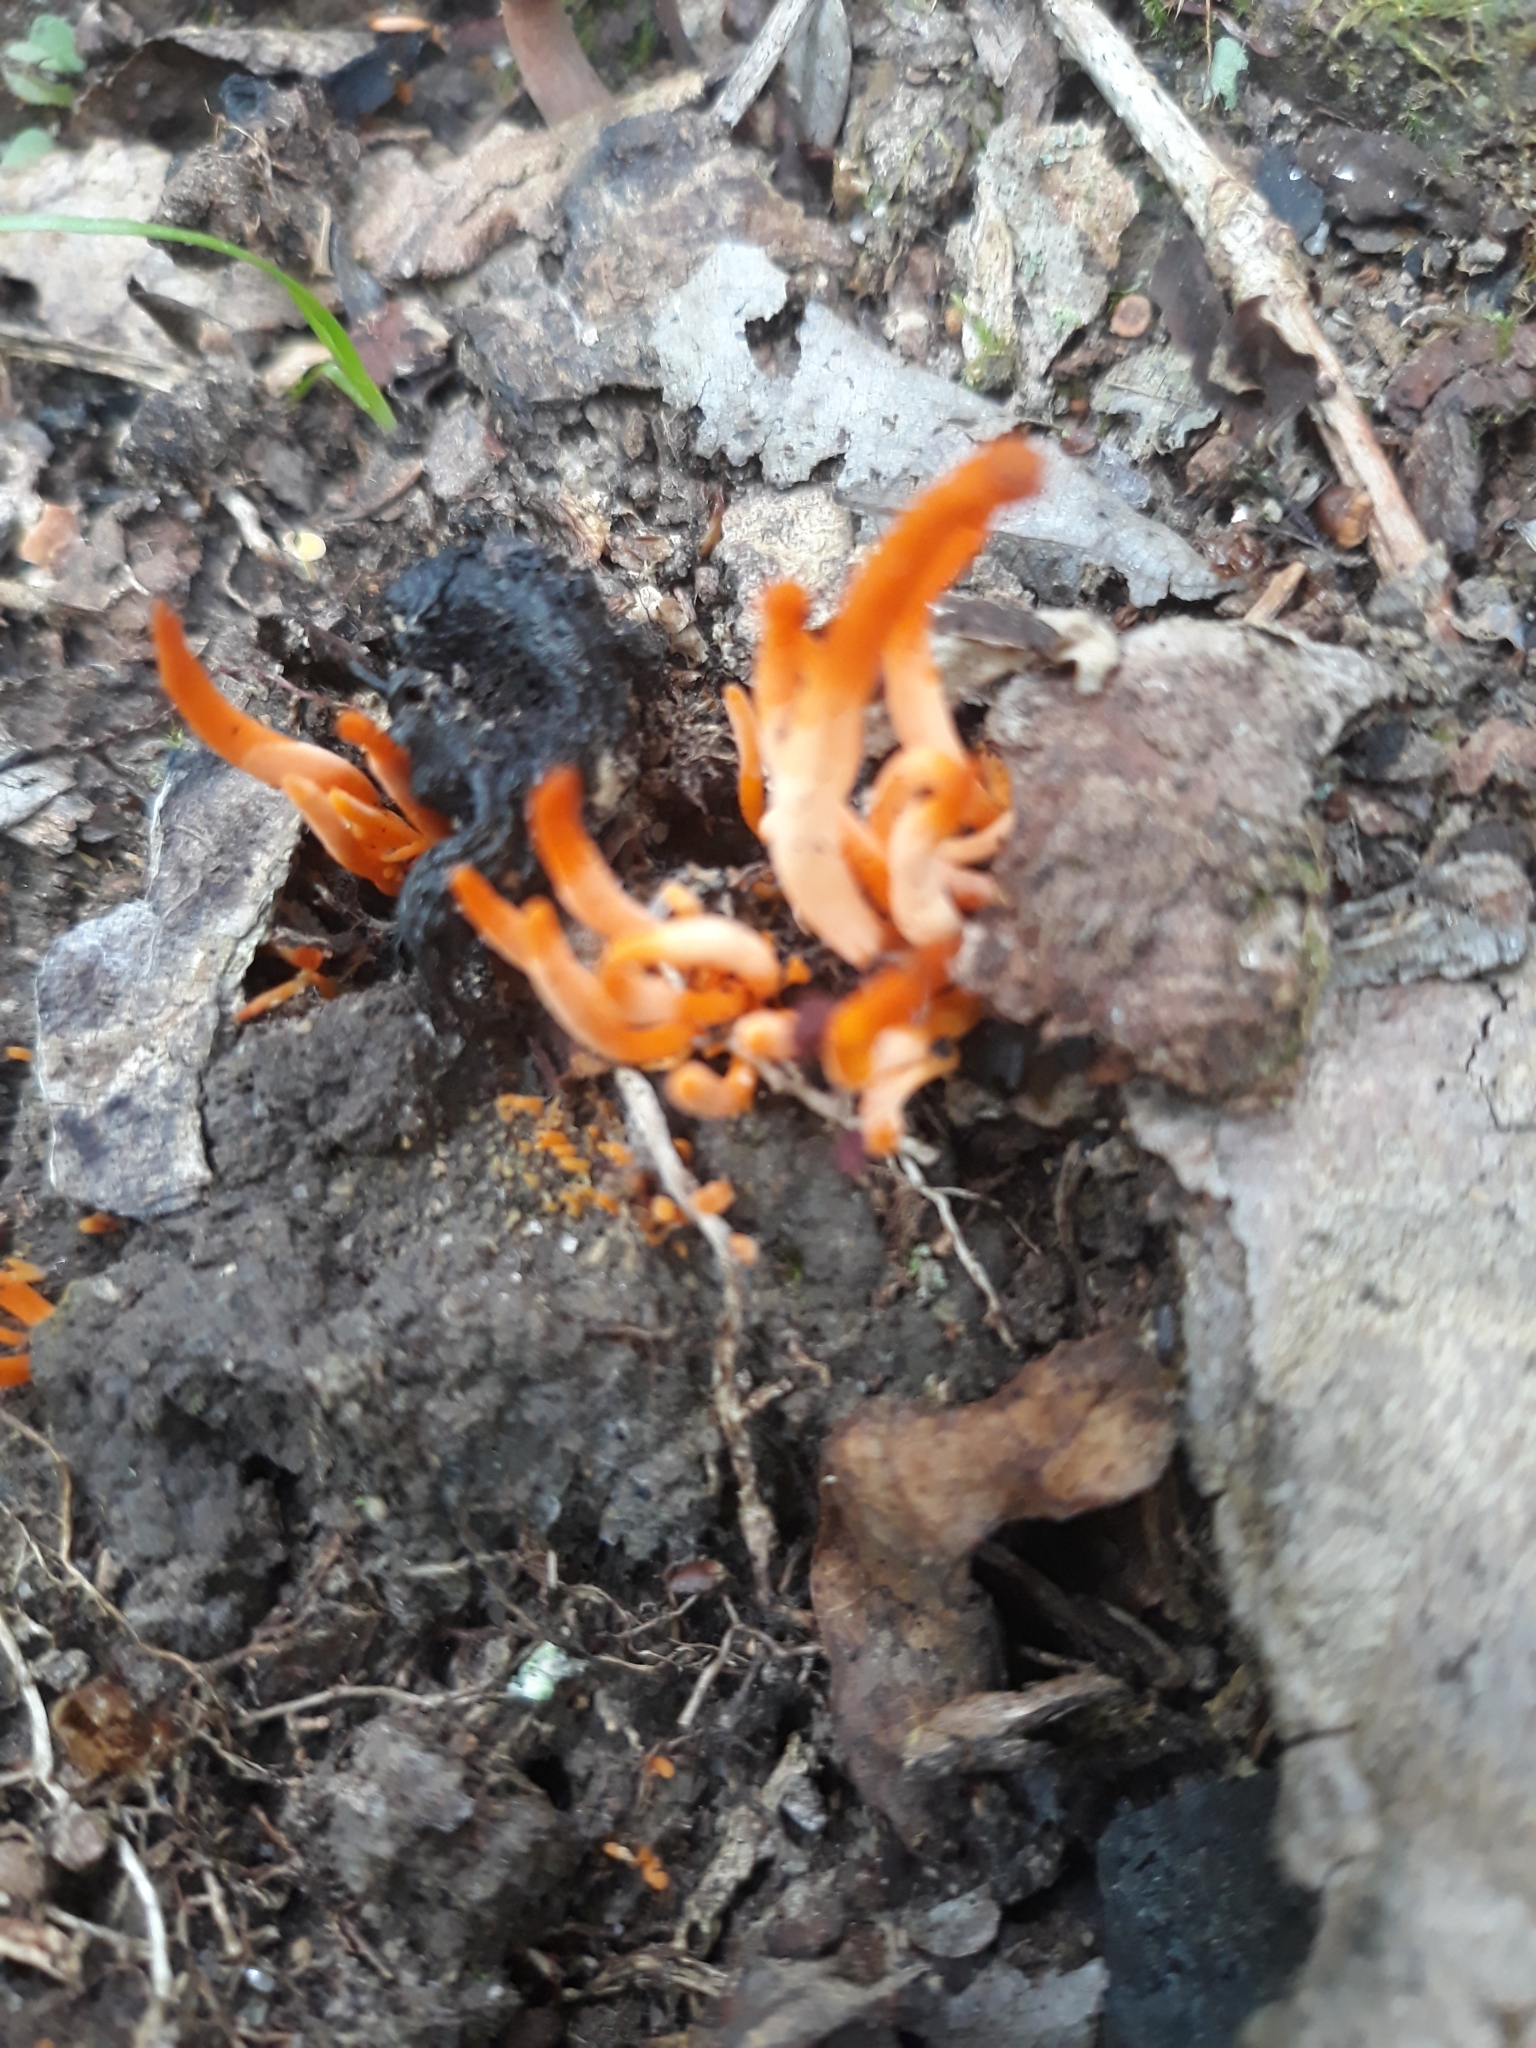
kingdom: Fungi
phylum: Basidiomycota
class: Agaricomycetes
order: Agaricales
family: Clavariaceae
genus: Clavulinopsis
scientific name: Clavulinopsis aurantiocinnabarina
